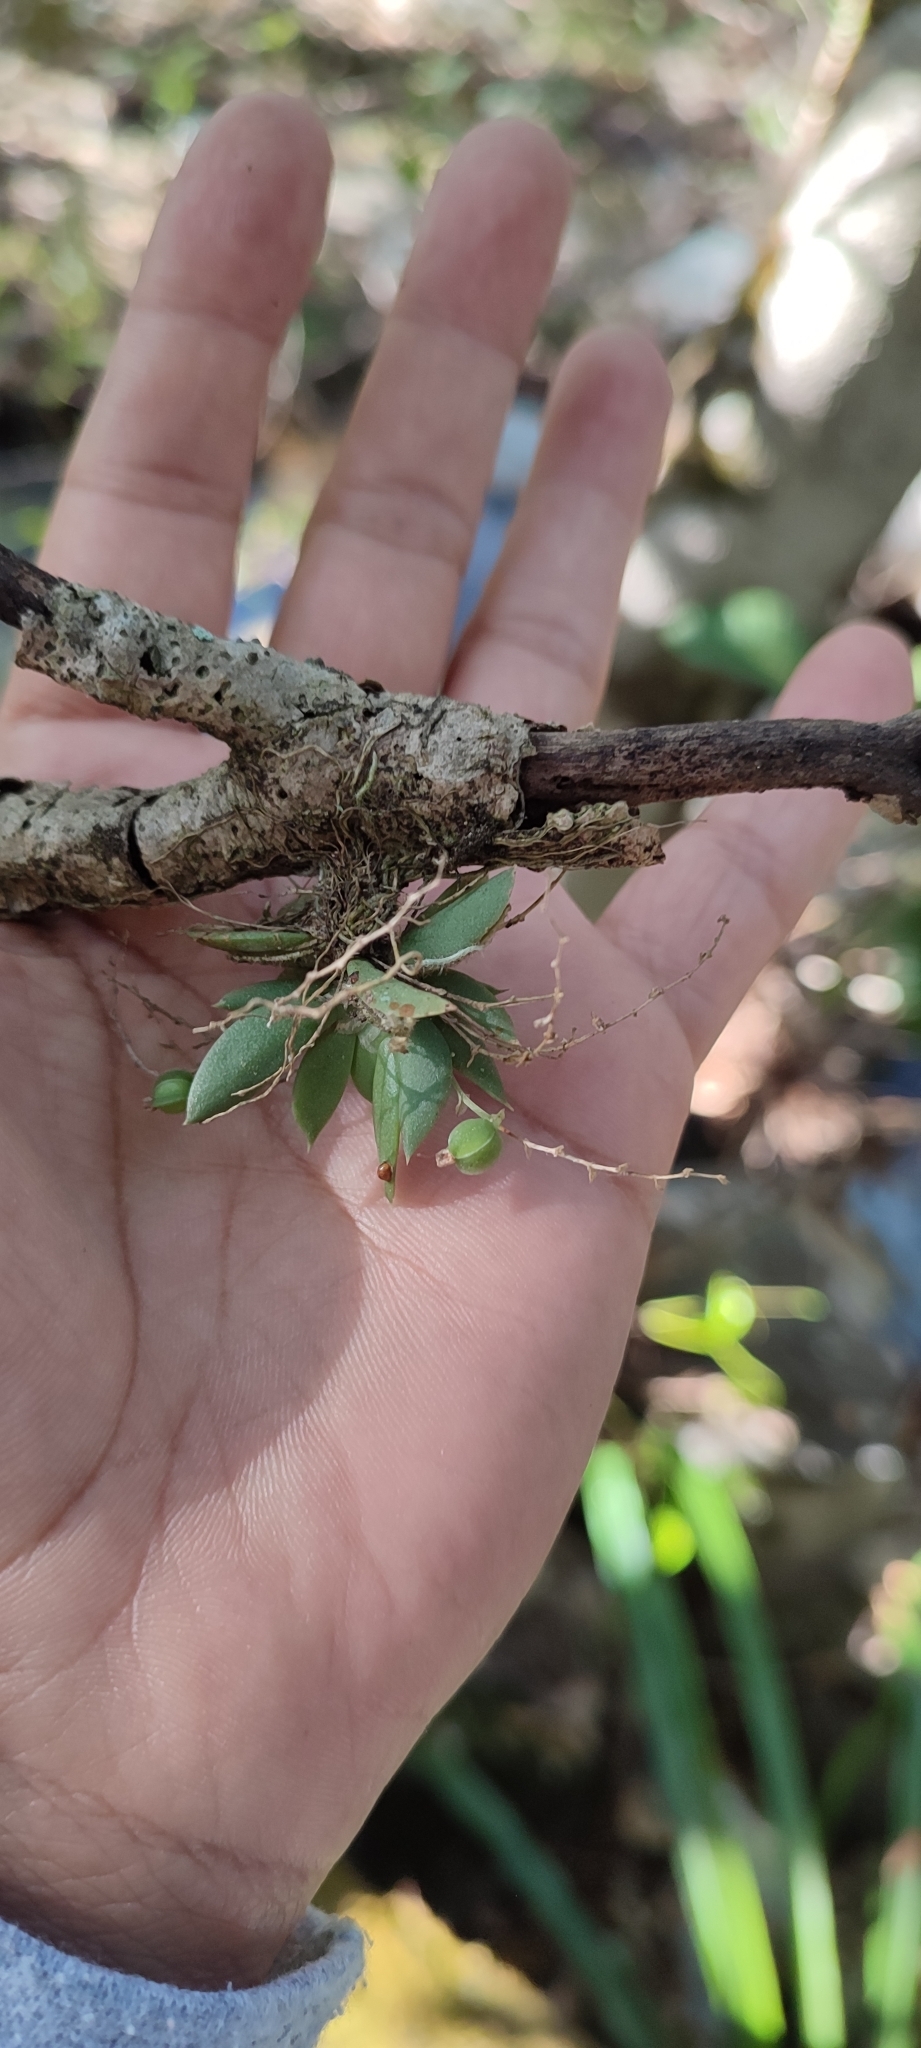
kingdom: Plantae
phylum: Tracheophyta
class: Liliopsida
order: Asparagales
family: Orchidaceae
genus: Ornithocephalus
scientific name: Ornithocephalus biloborostratus
